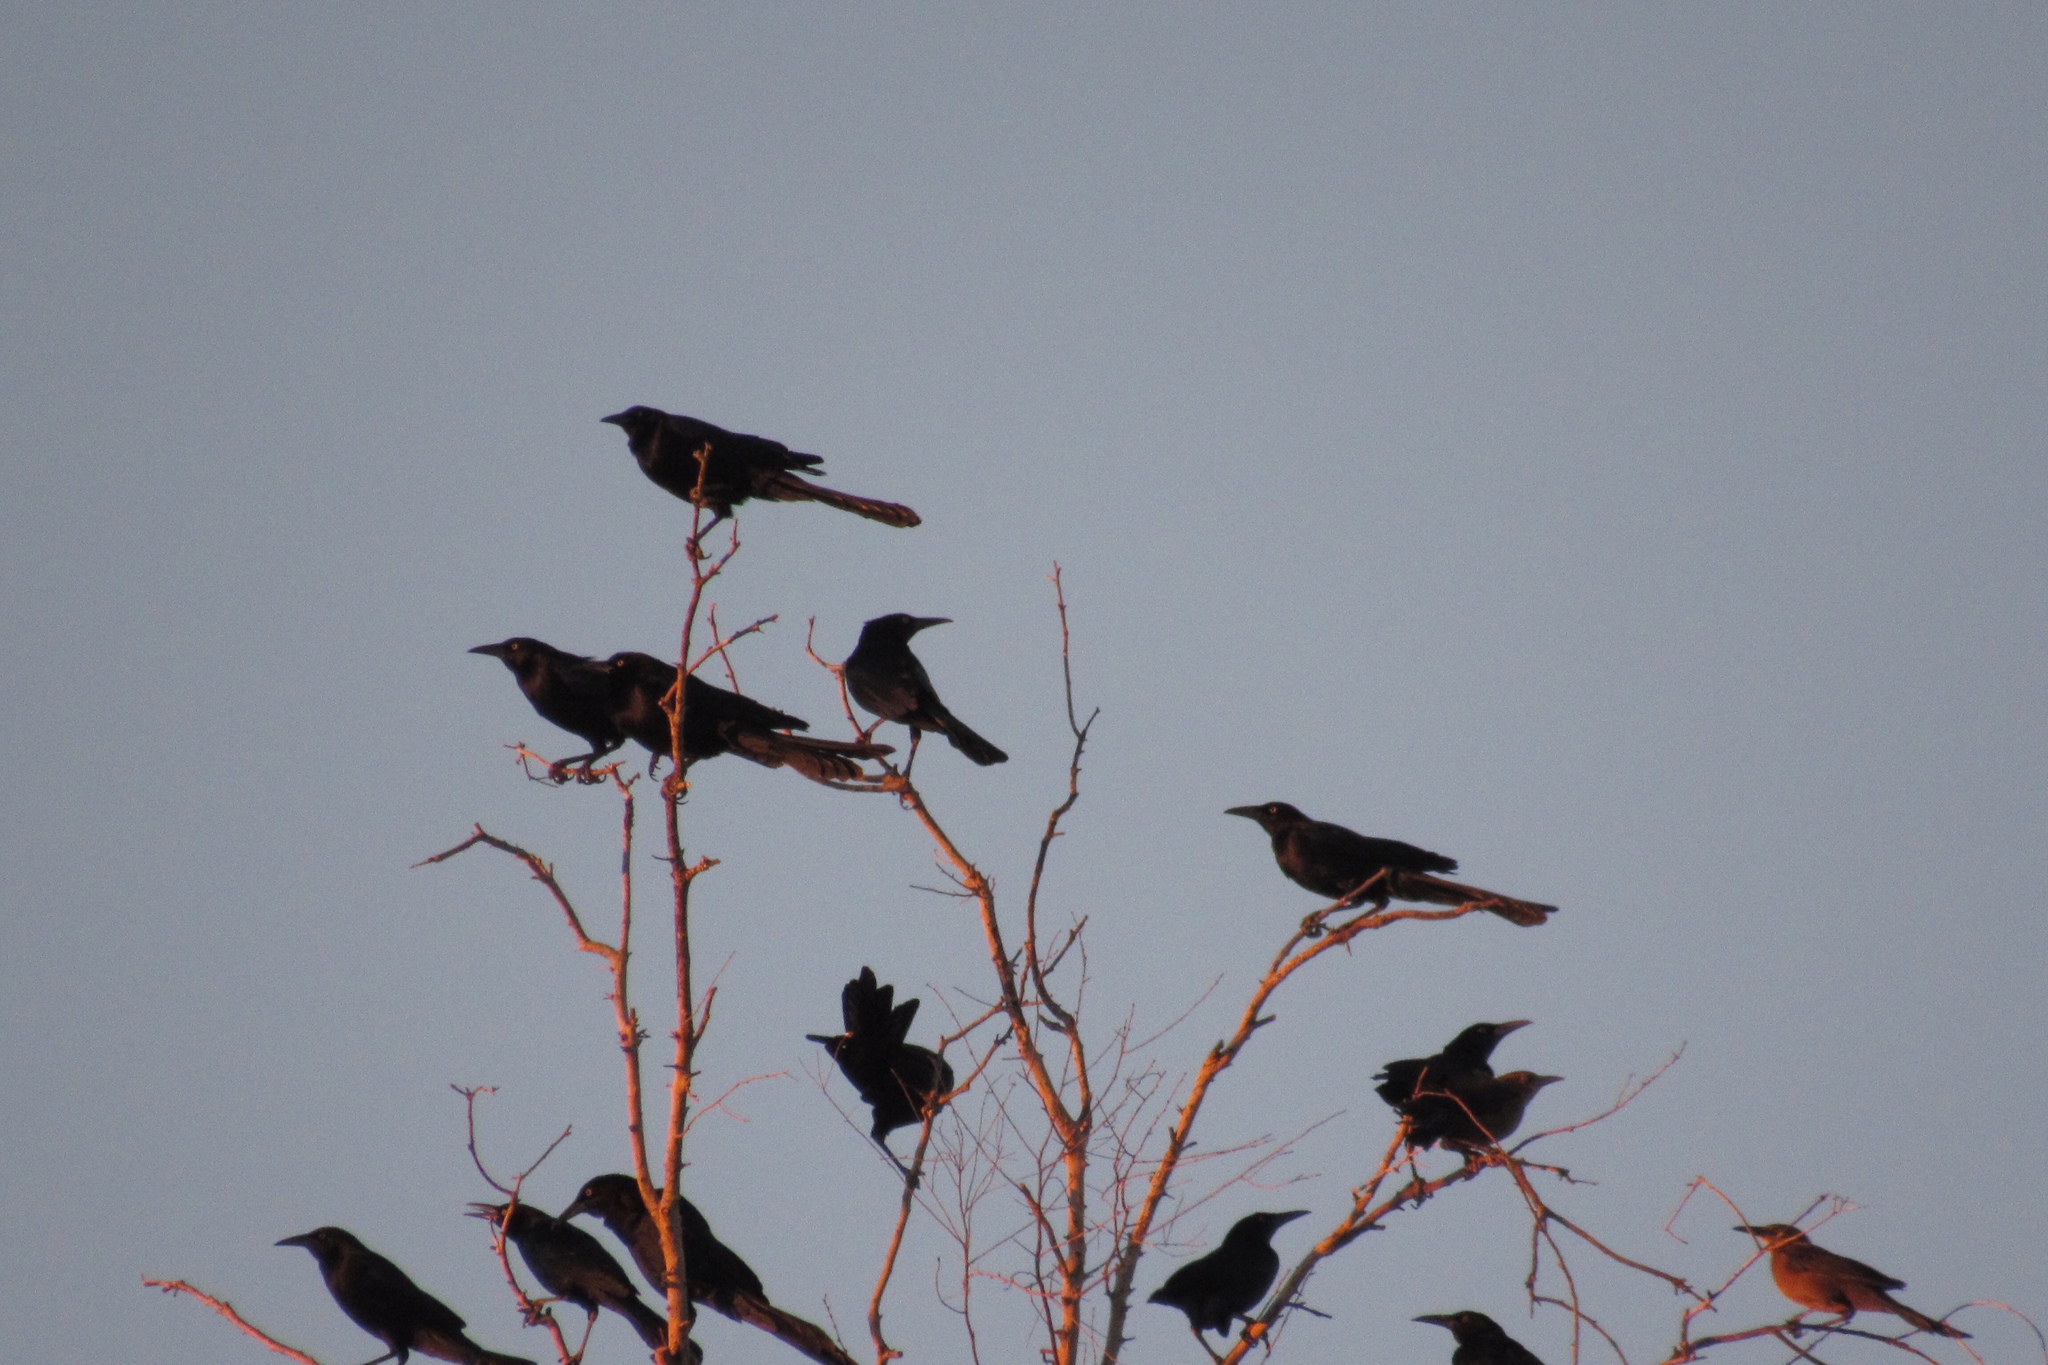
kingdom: Animalia
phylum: Chordata
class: Aves
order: Passeriformes
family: Icteridae
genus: Quiscalus
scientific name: Quiscalus mexicanus
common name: Great-tailed grackle
